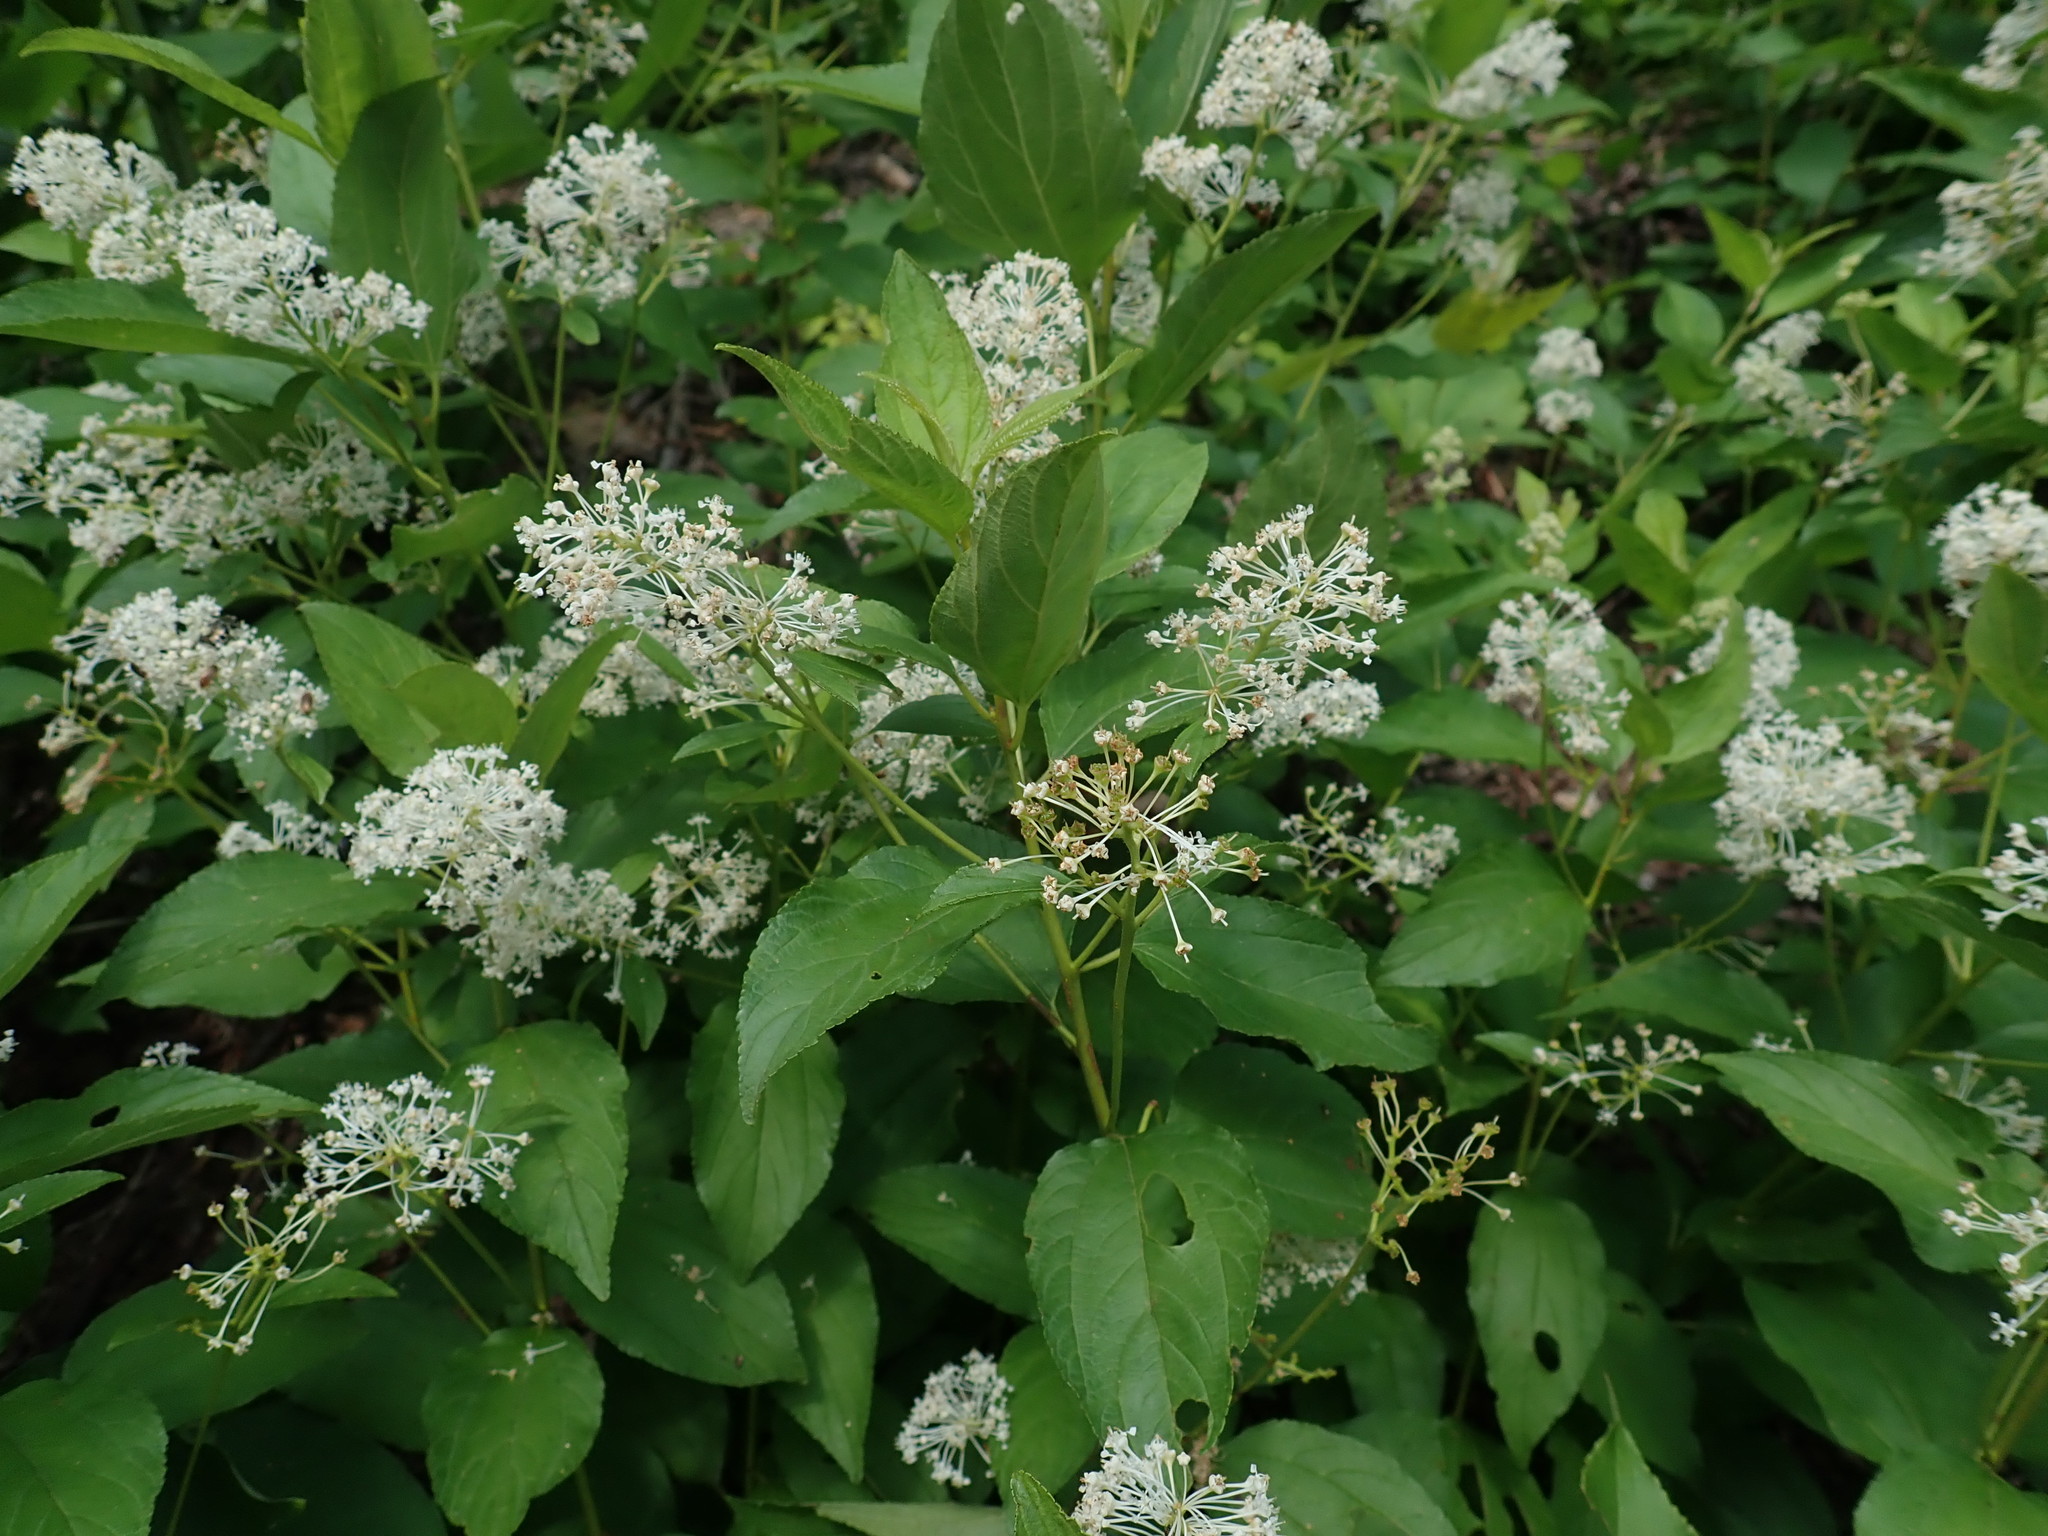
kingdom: Plantae
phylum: Tracheophyta
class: Magnoliopsida
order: Rosales
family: Rhamnaceae
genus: Ceanothus
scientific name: Ceanothus americanus
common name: Redroot
